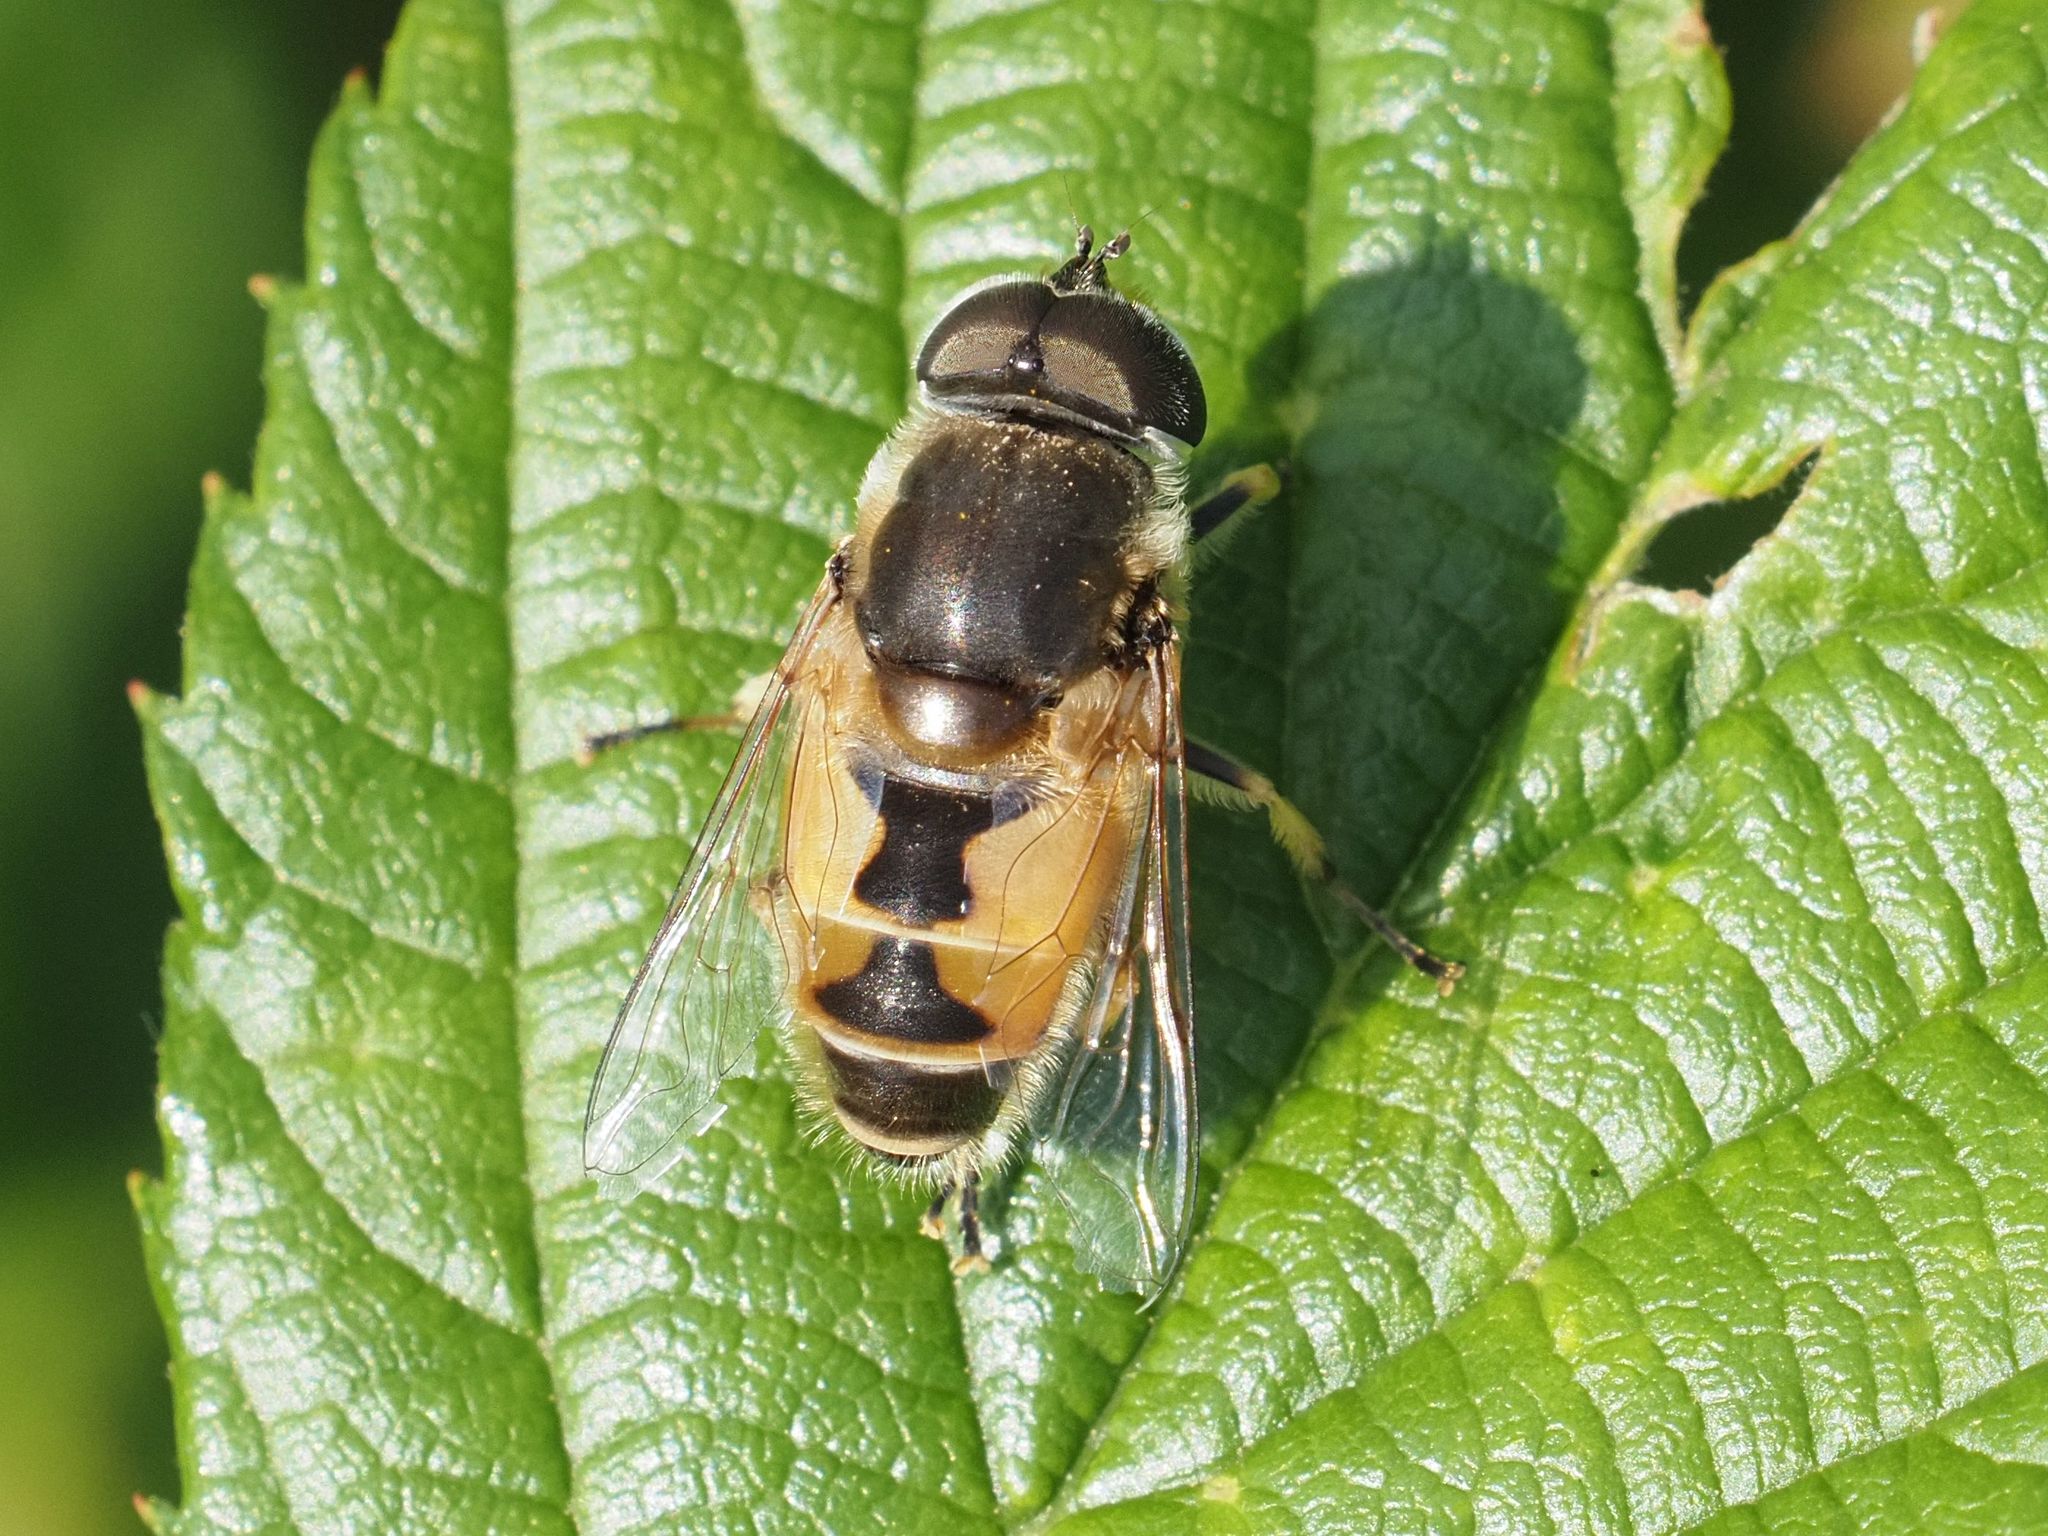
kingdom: Animalia
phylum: Arthropoda
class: Insecta
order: Diptera
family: Syrphidae
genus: Eristalis
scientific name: Eristalis arbustorum
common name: Hover fly
